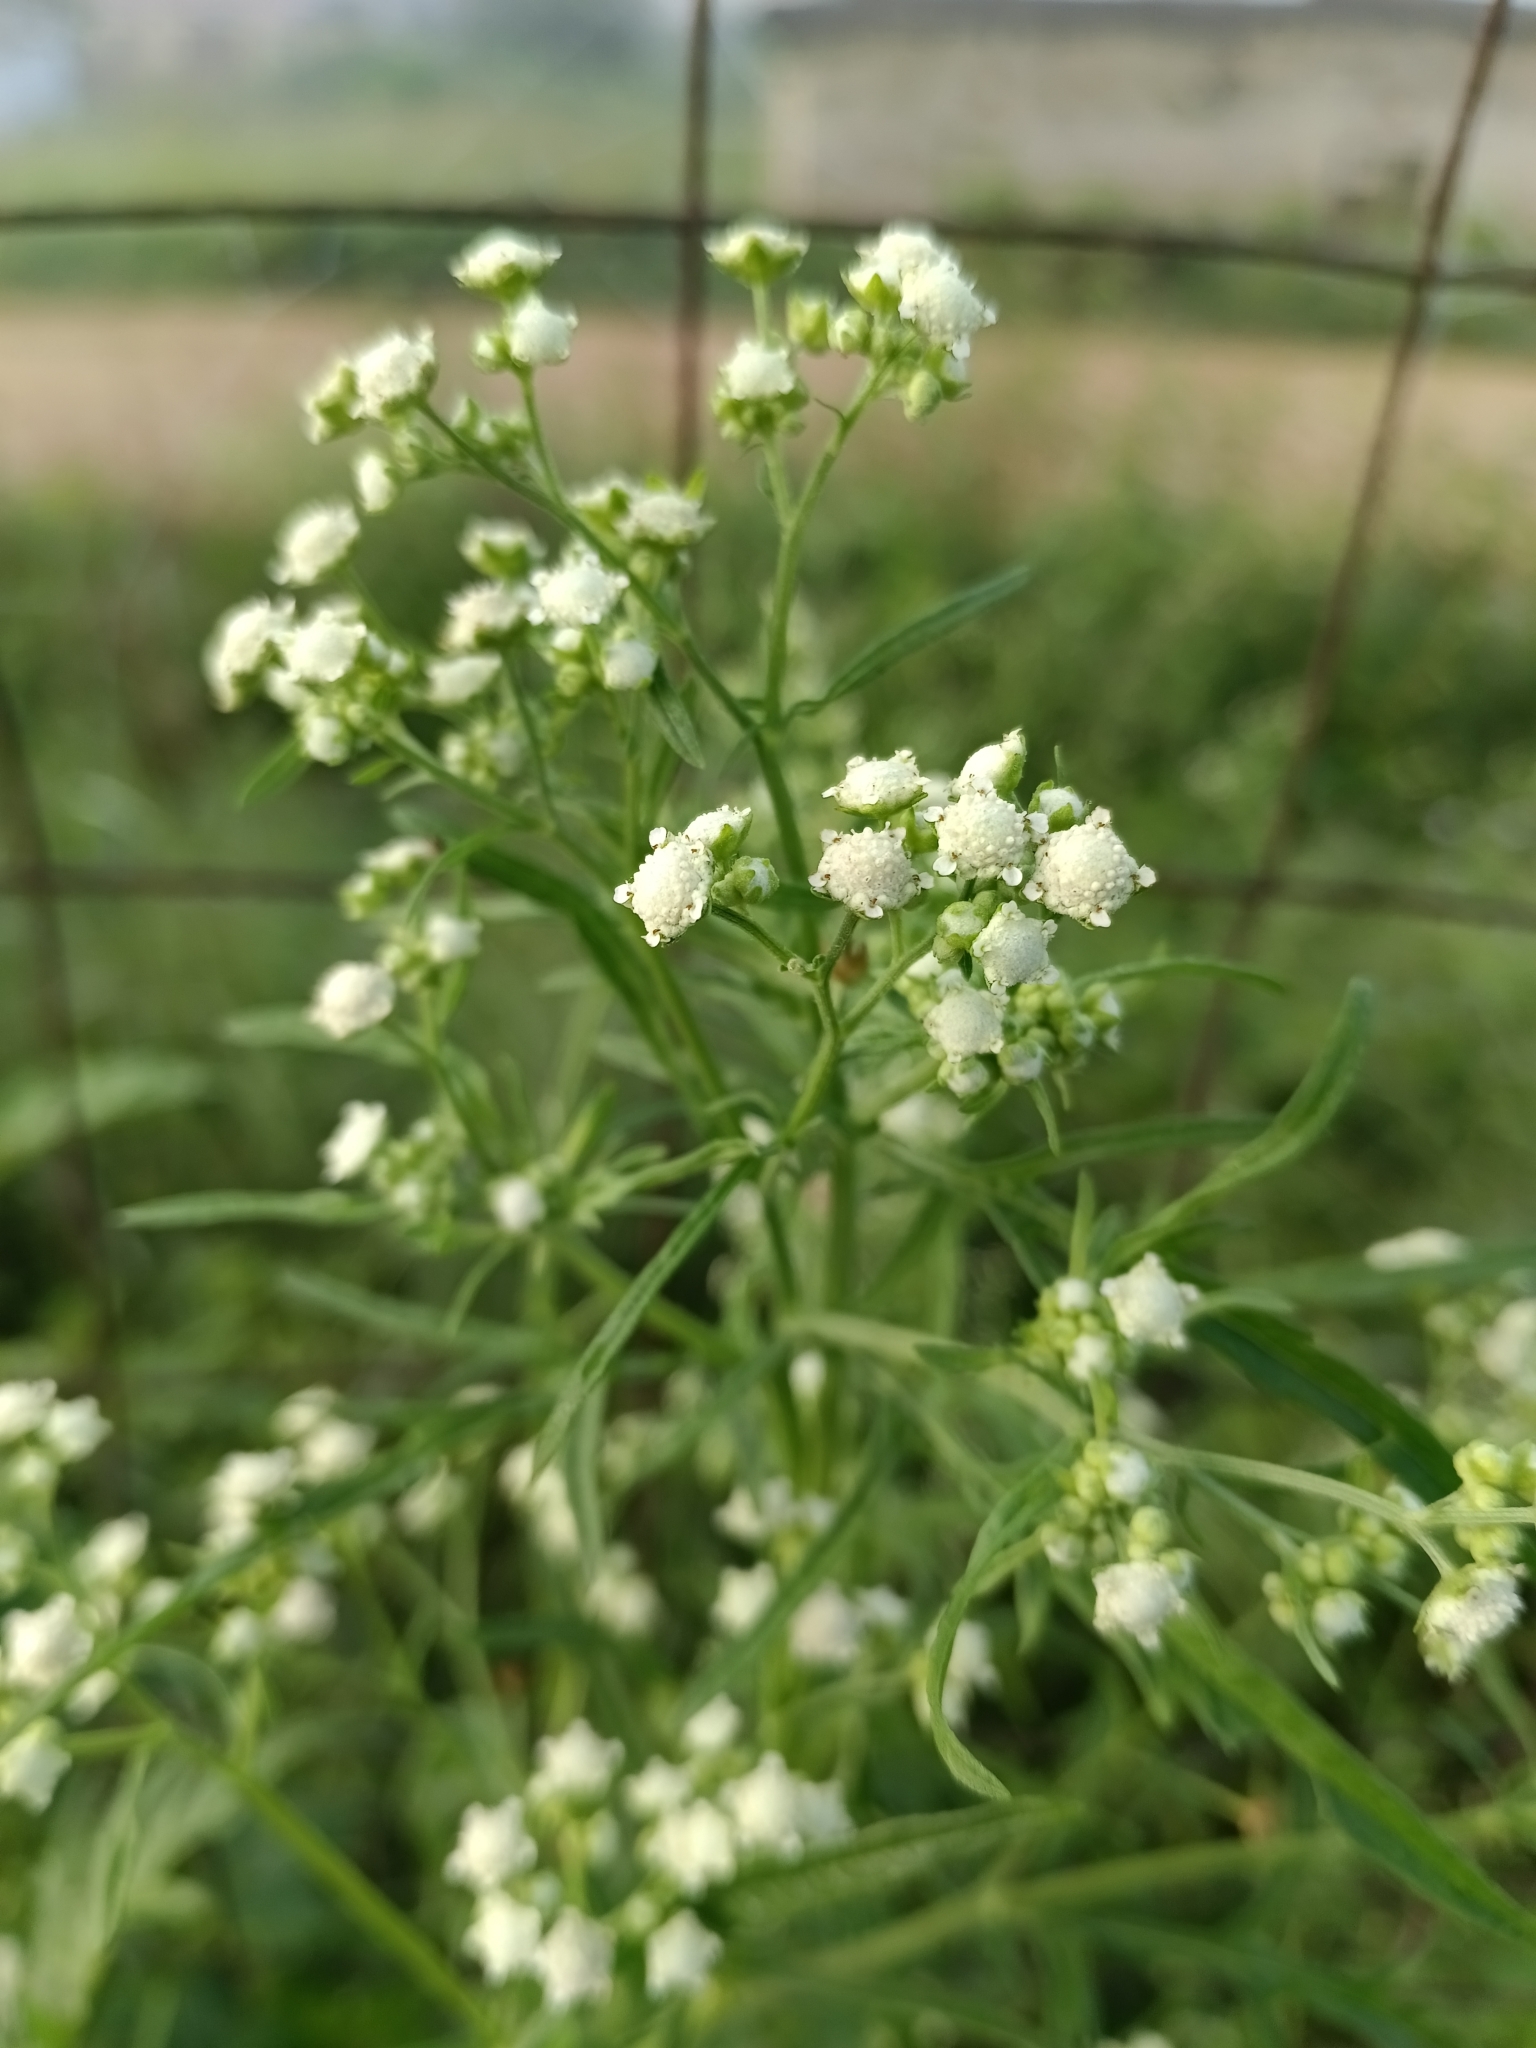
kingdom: Plantae
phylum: Tracheophyta
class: Magnoliopsida
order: Asterales
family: Asteraceae
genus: Parthenium
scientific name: Parthenium hysterophorus
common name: Santa maria feverfew
